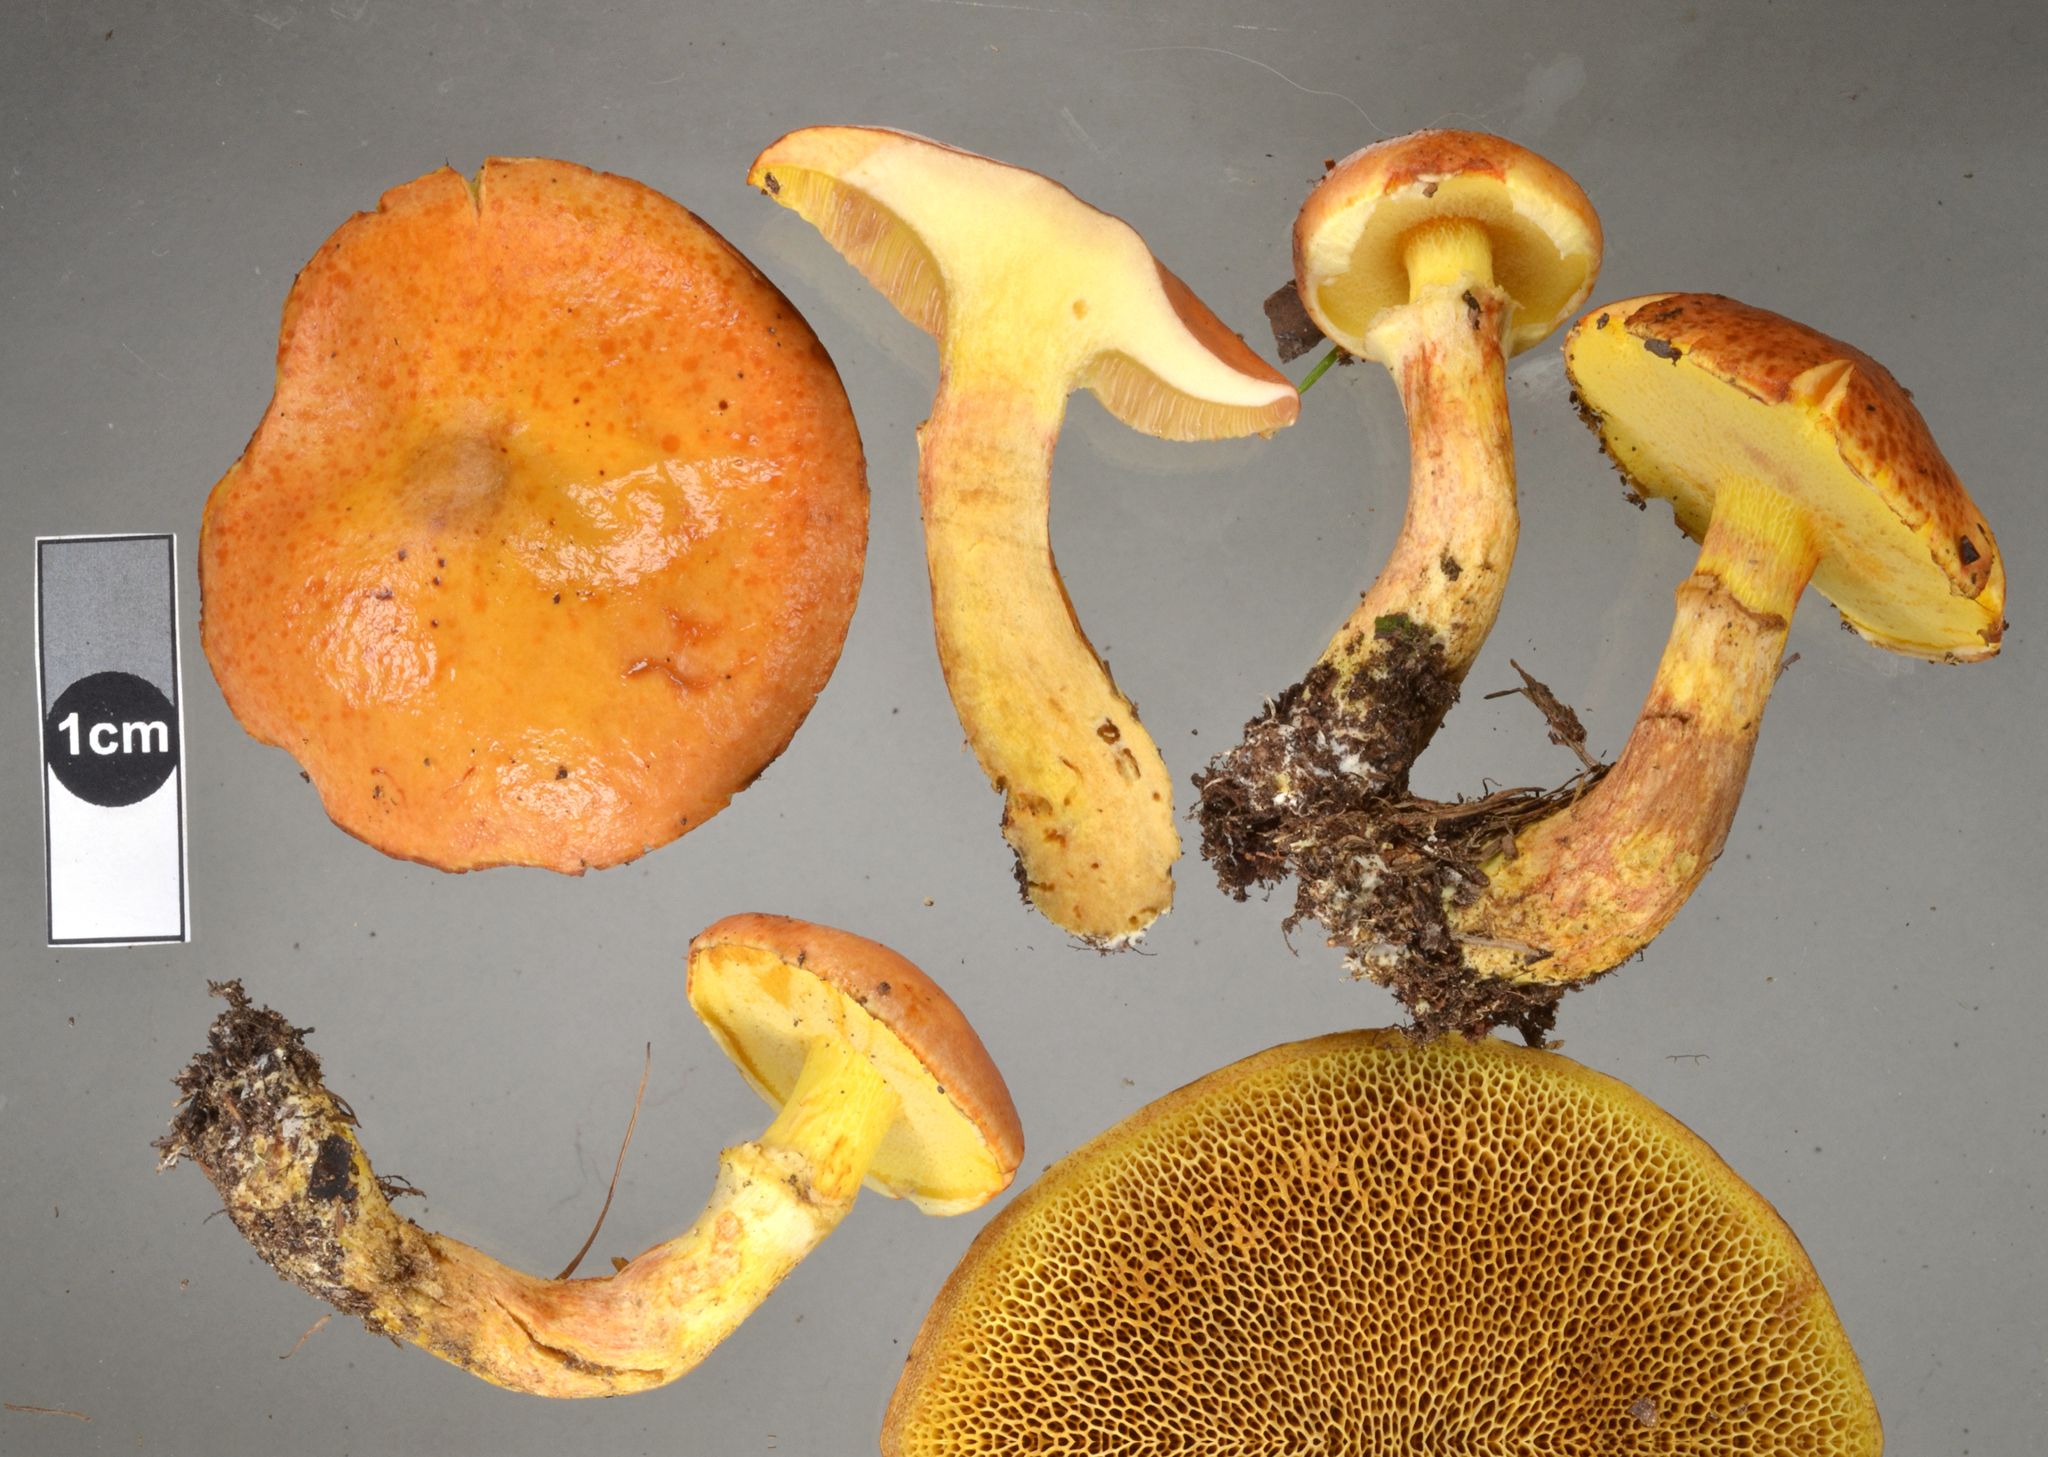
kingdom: Fungi
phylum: Basidiomycota
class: Agaricomycetes
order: Boletales
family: Suillaceae
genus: Suillus
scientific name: Suillus grevillei
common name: Larch bolete
